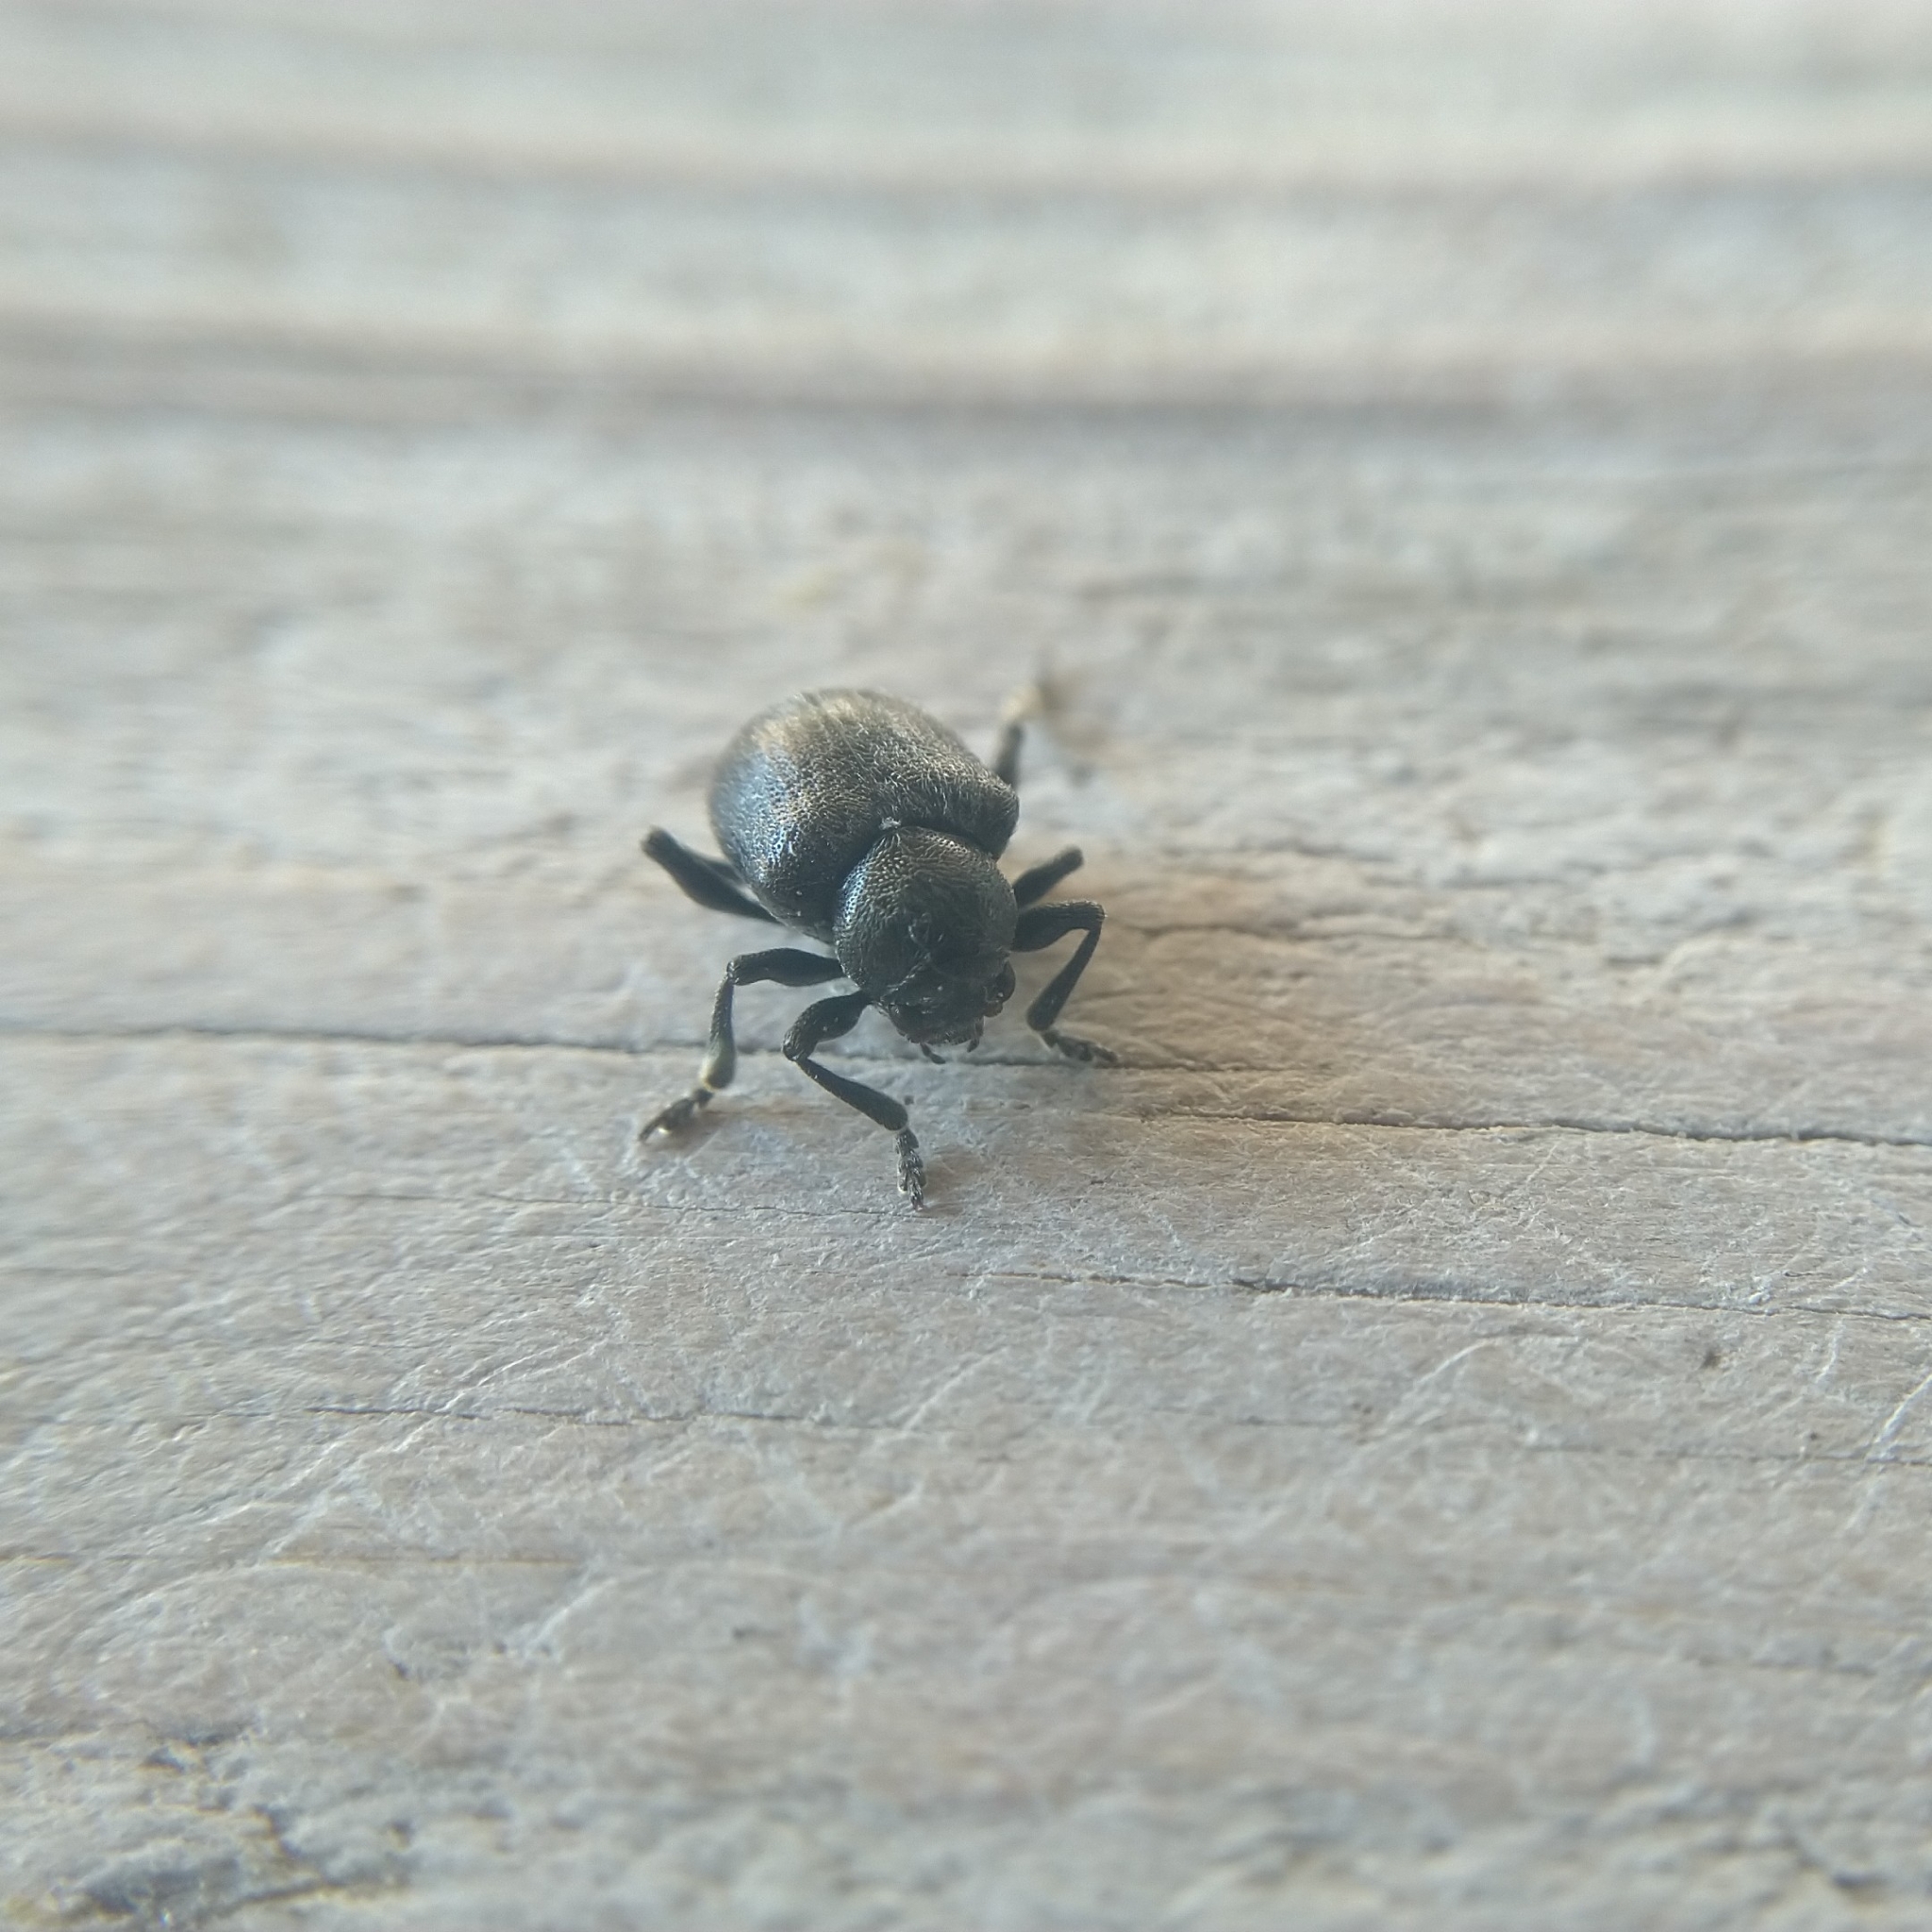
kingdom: Animalia
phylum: Arthropoda
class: Insecta
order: Coleoptera
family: Chrysomelidae
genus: Bromius
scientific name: Bromius obscurus
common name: Western grape rootworm
